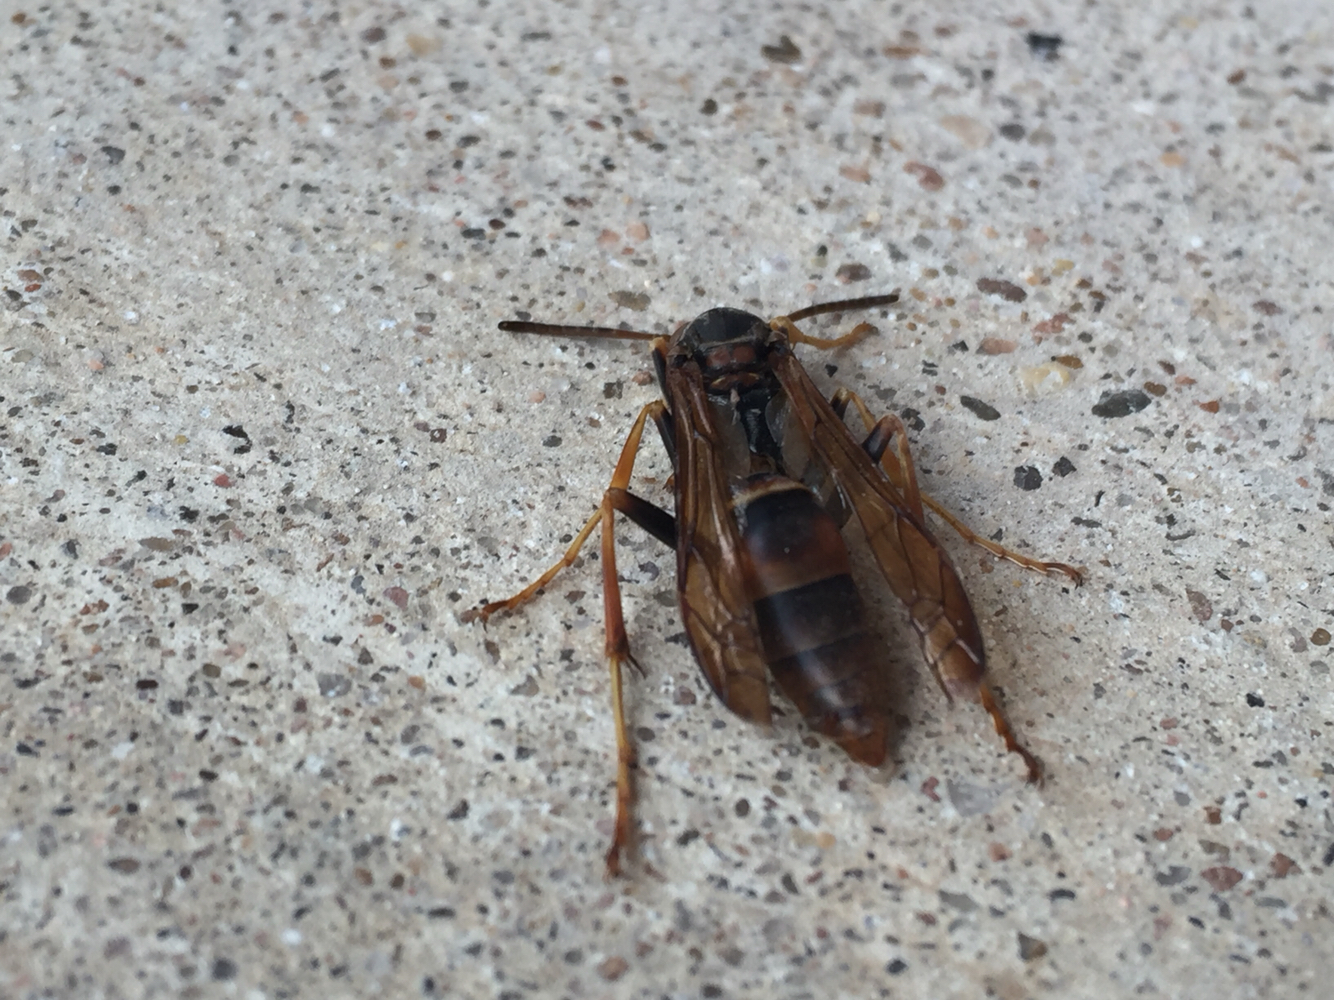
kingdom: Animalia
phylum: Arthropoda
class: Insecta
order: Hymenoptera
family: Eumenidae
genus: Polistes
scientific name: Polistes fuscatus
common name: Dark paper wasp
